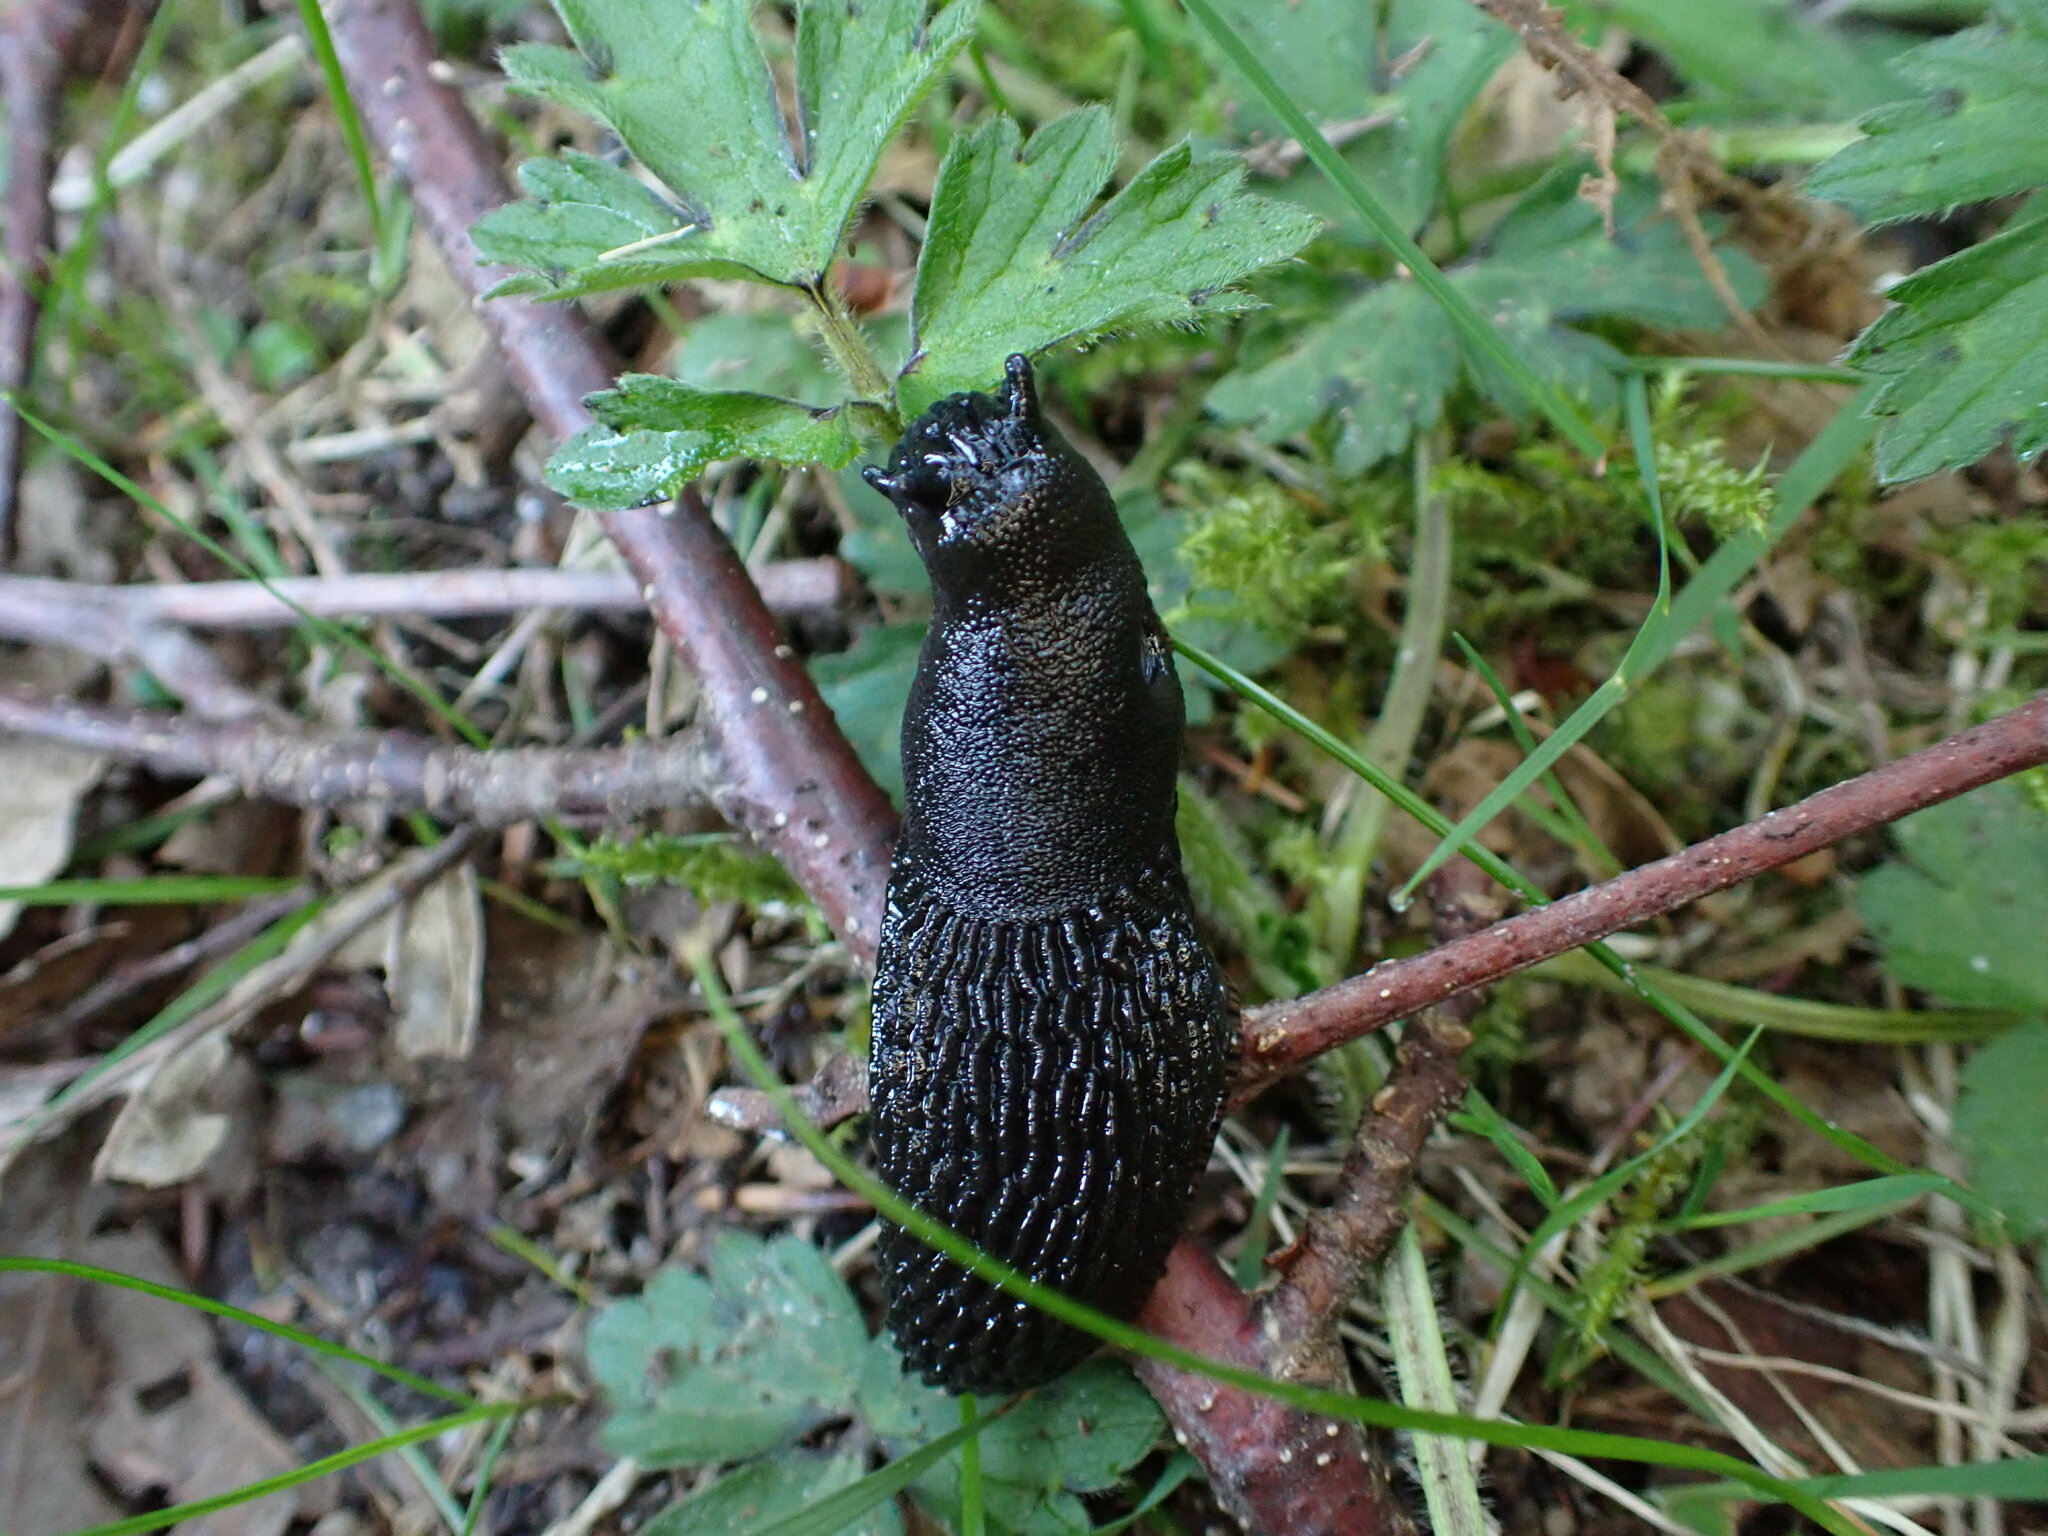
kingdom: Animalia
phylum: Mollusca
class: Gastropoda
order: Stylommatophora
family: Arionidae
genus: Arion
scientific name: Arion
